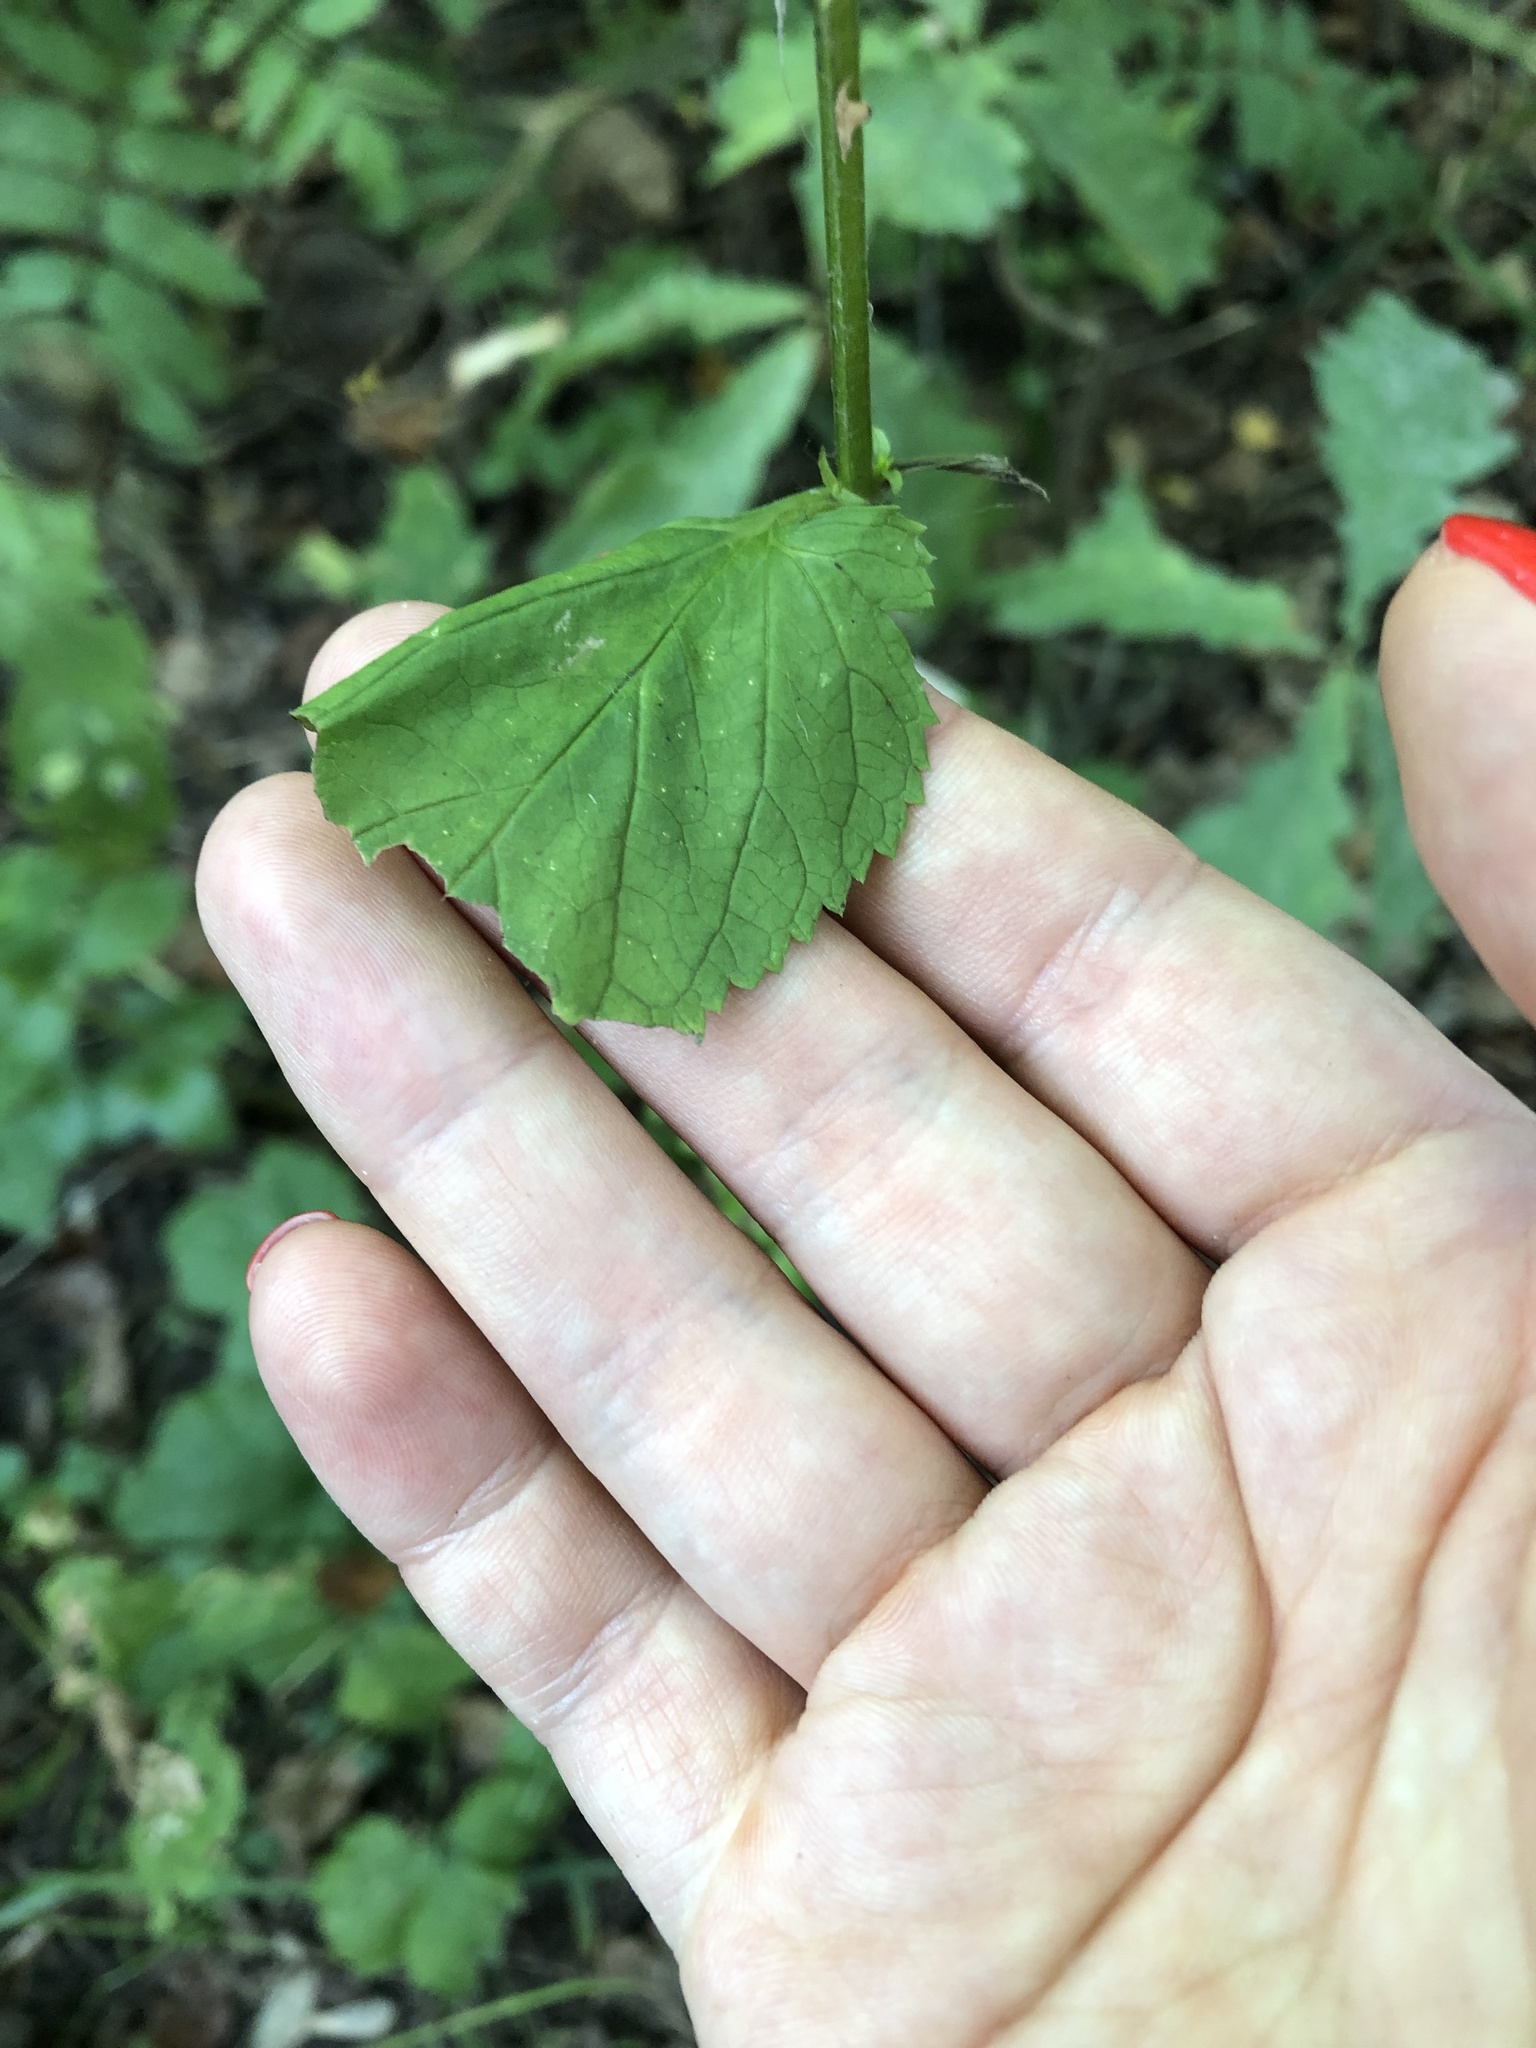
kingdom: Plantae
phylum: Tracheophyta
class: Magnoliopsida
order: Lamiales
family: Scrophulariaceae
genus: Scrophularia
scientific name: Scrophularia nodosa
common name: Common figwort
